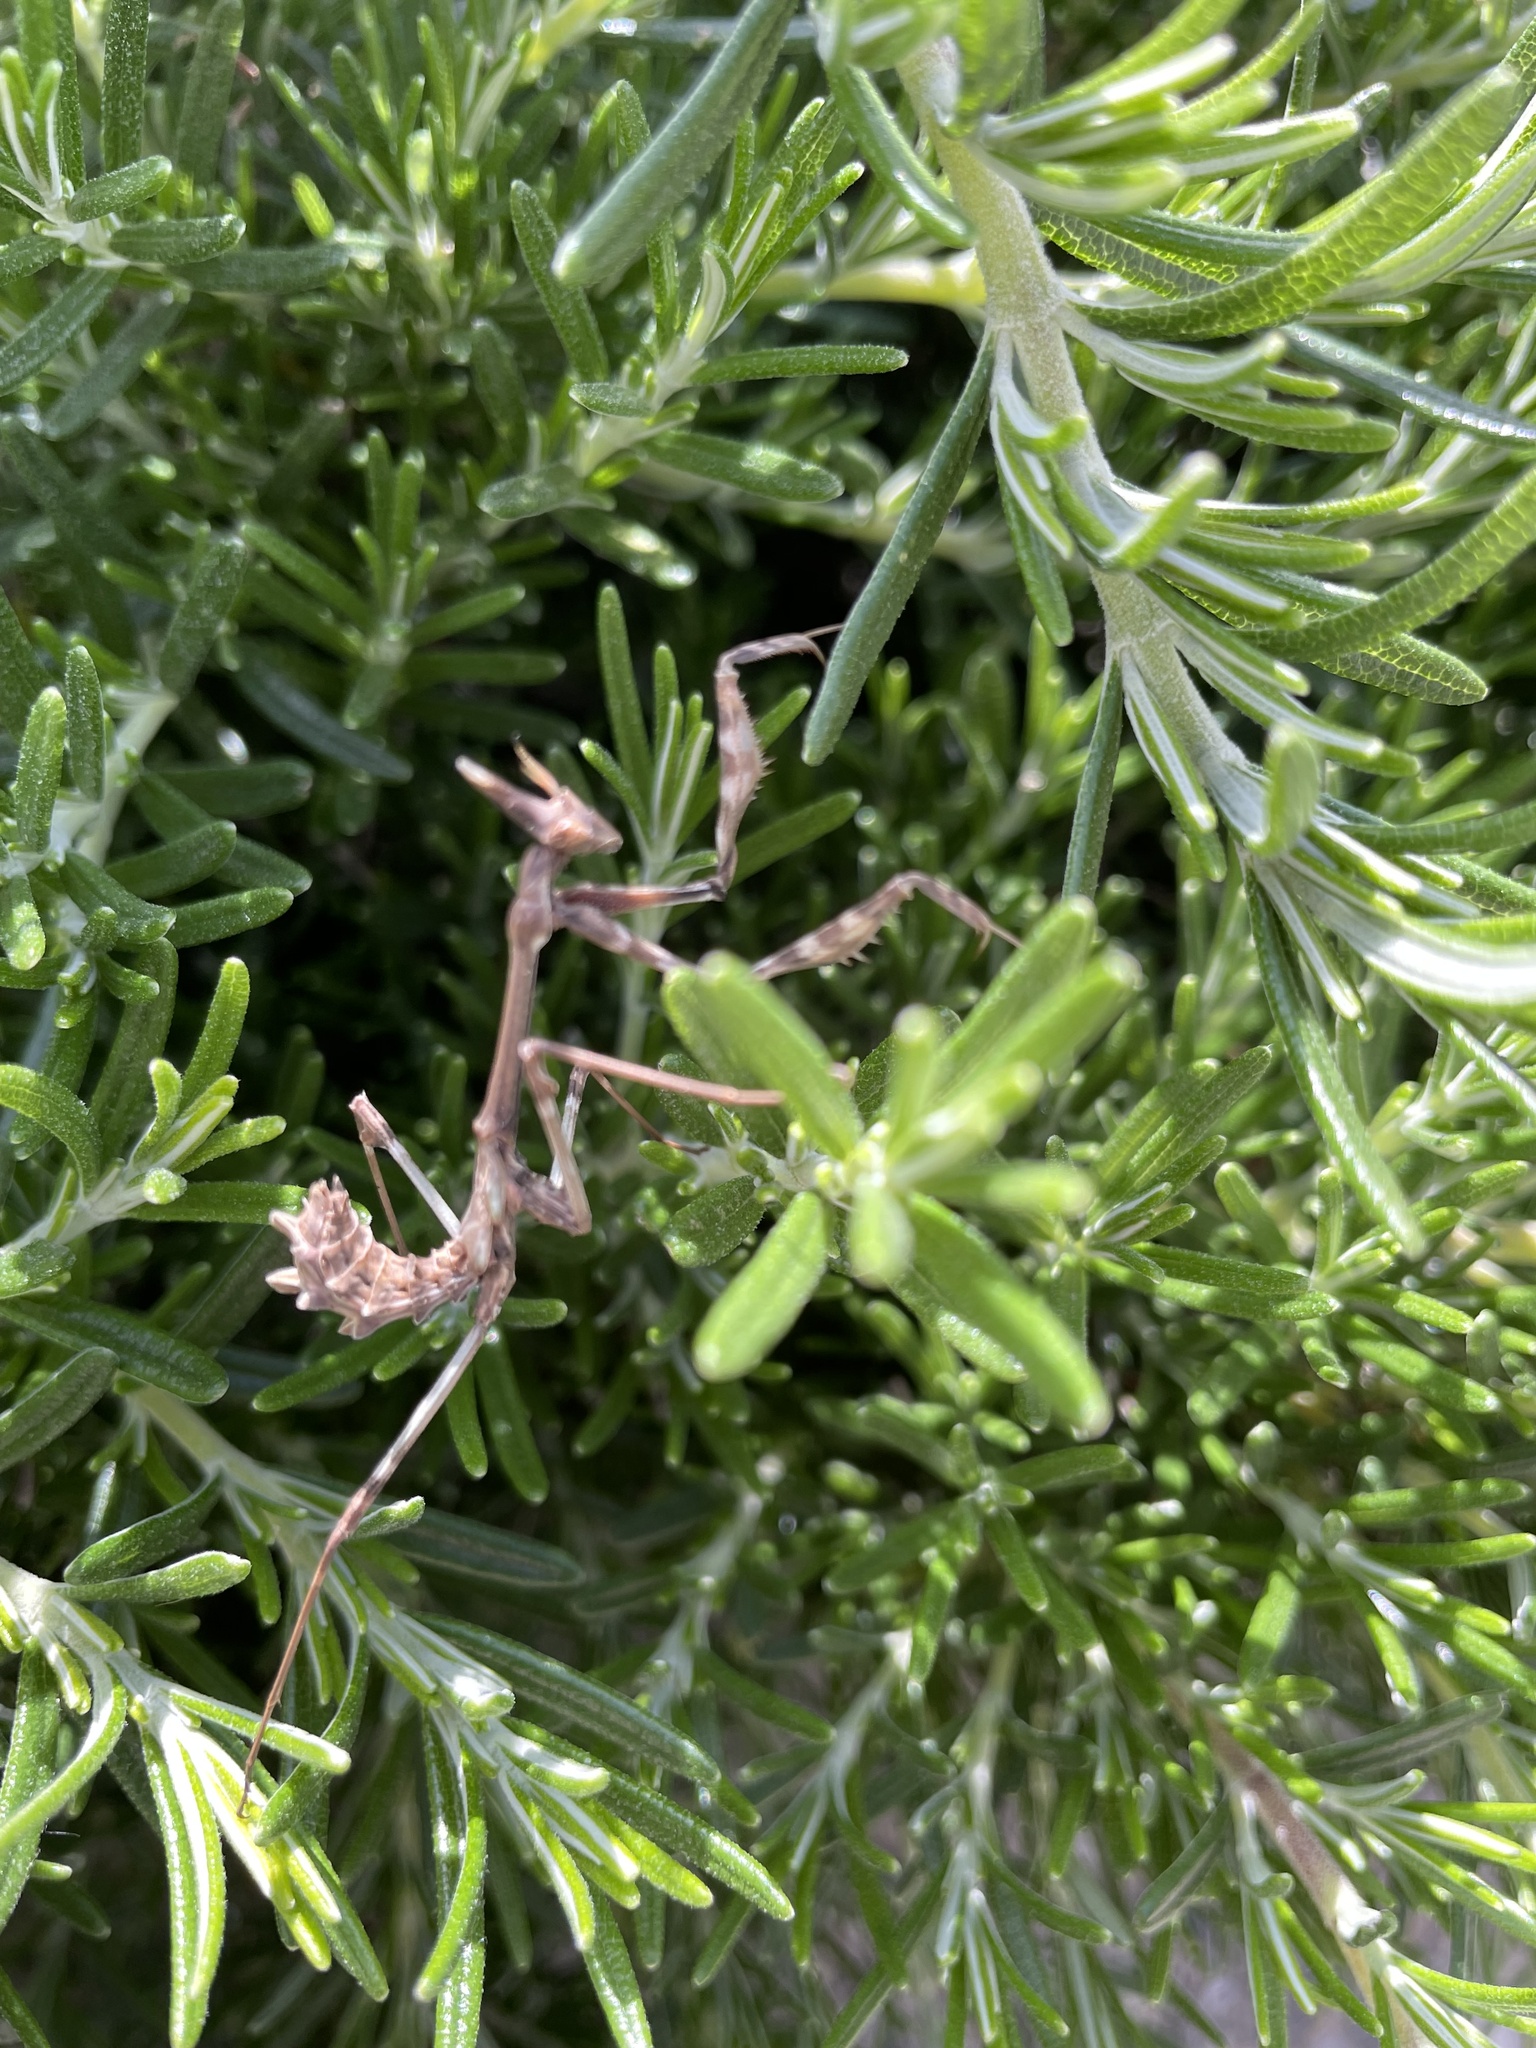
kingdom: Animalia
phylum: Arthropoda
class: Insecta
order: Mantodea
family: Empusidae
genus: Empusa
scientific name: Empusa fasciata
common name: Devil's mare
